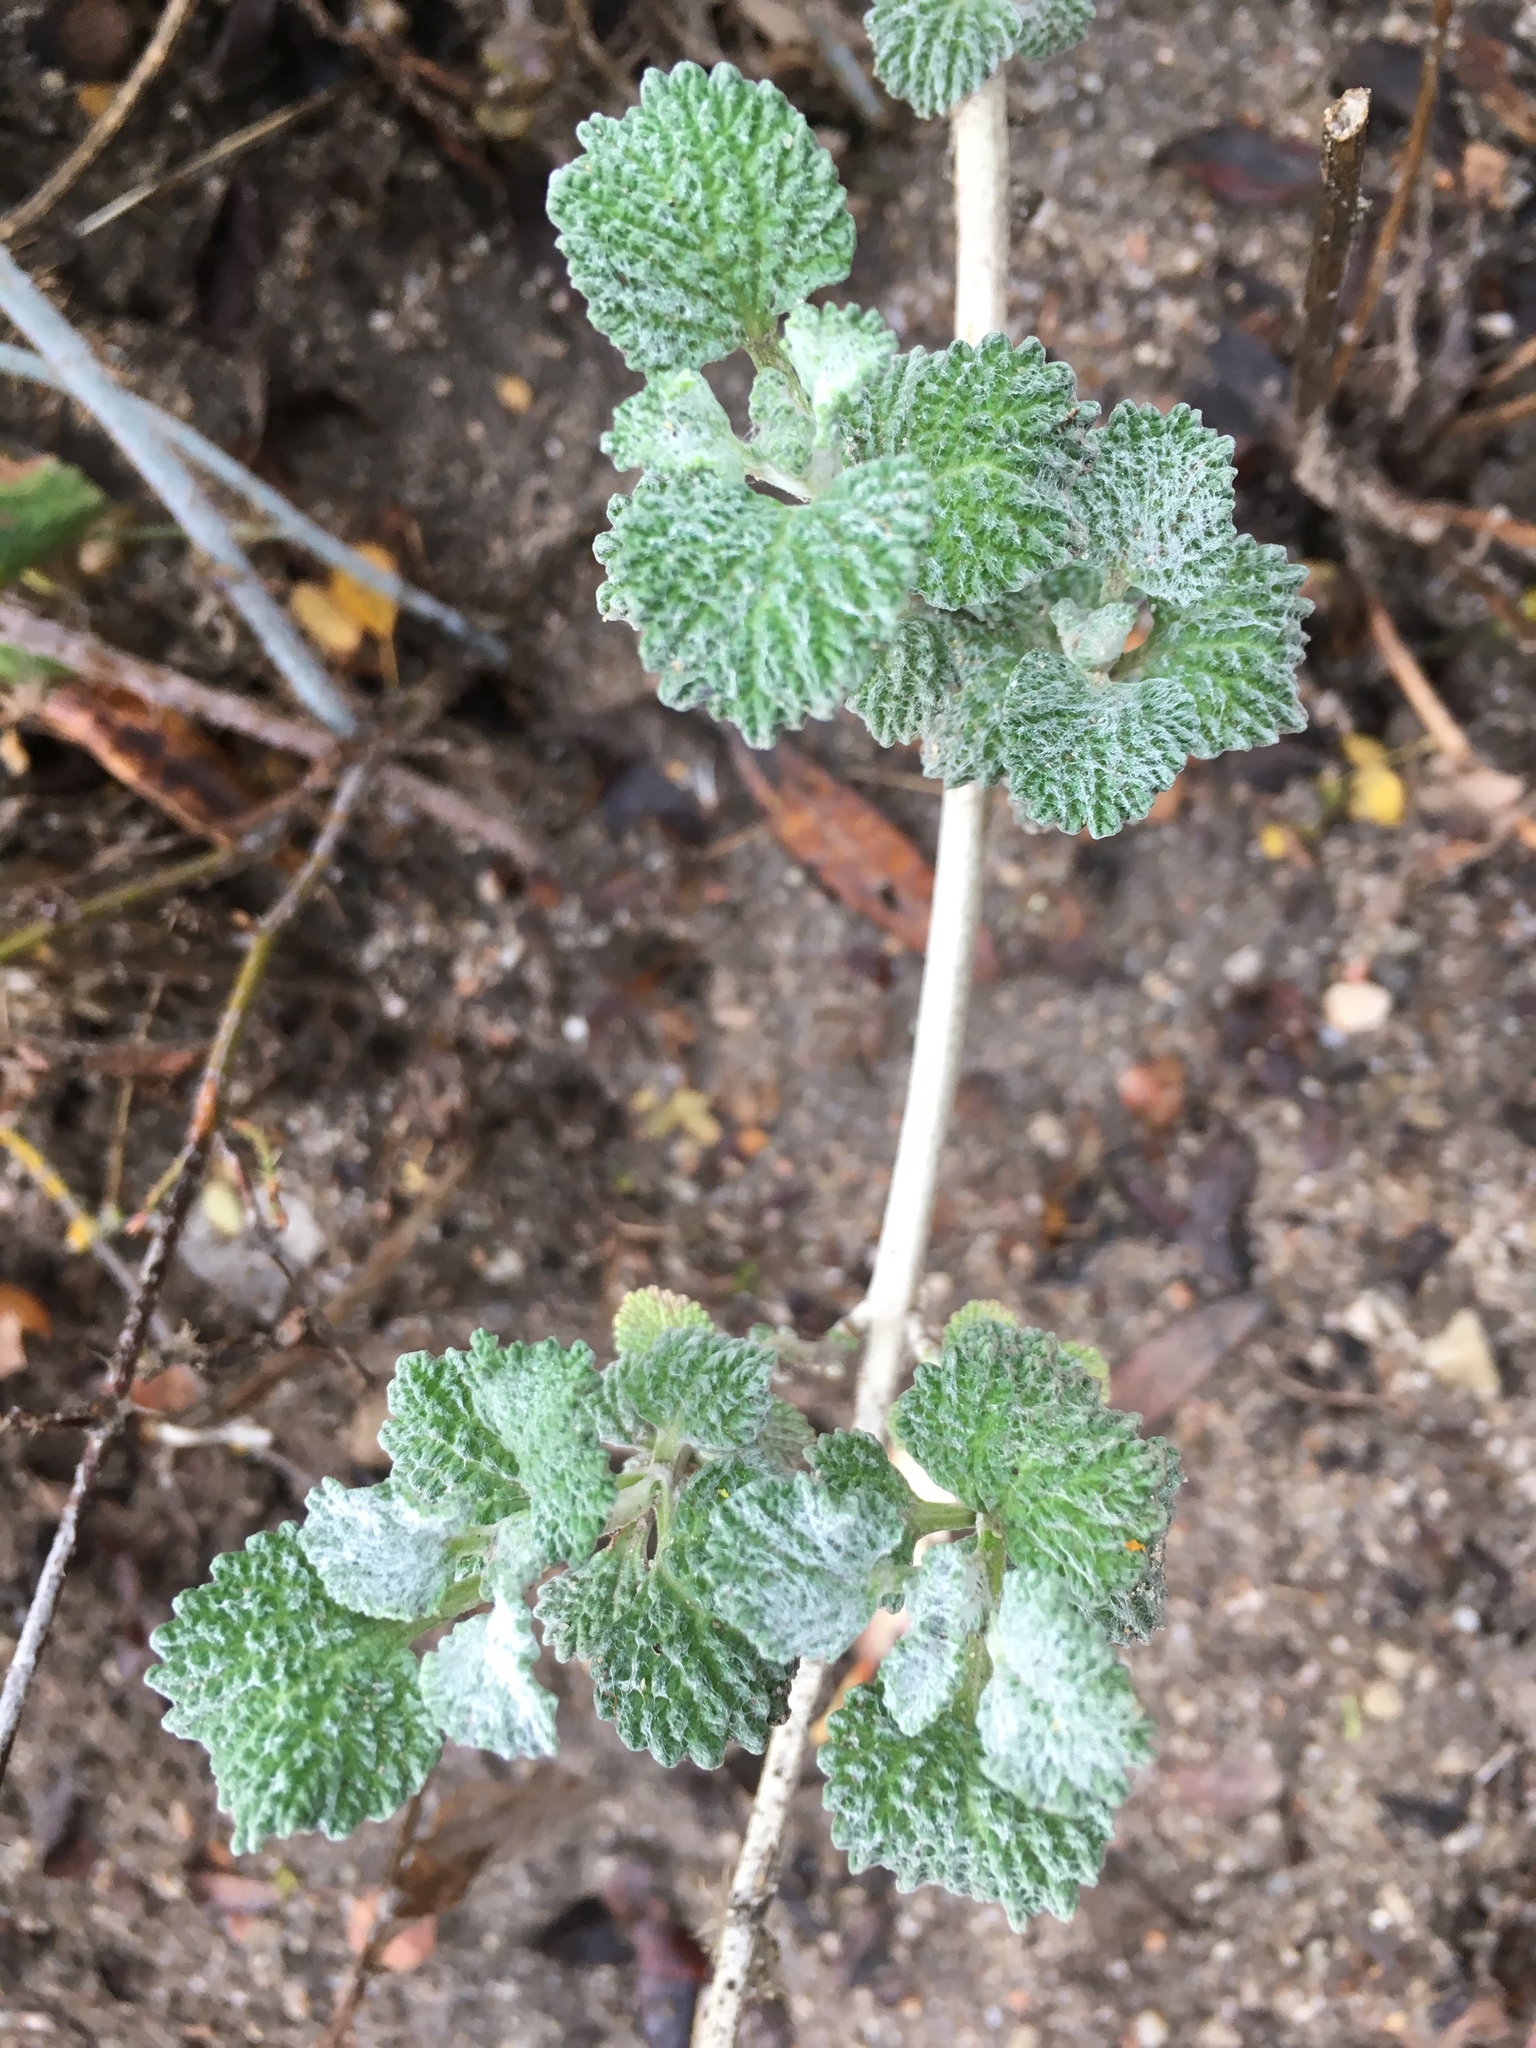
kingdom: Plantae
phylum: Tracheophyta
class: Magnoliopsida
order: Lamiales
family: Lamiaceae
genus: Marrubium
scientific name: Marrubium vulgare
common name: Horehound
